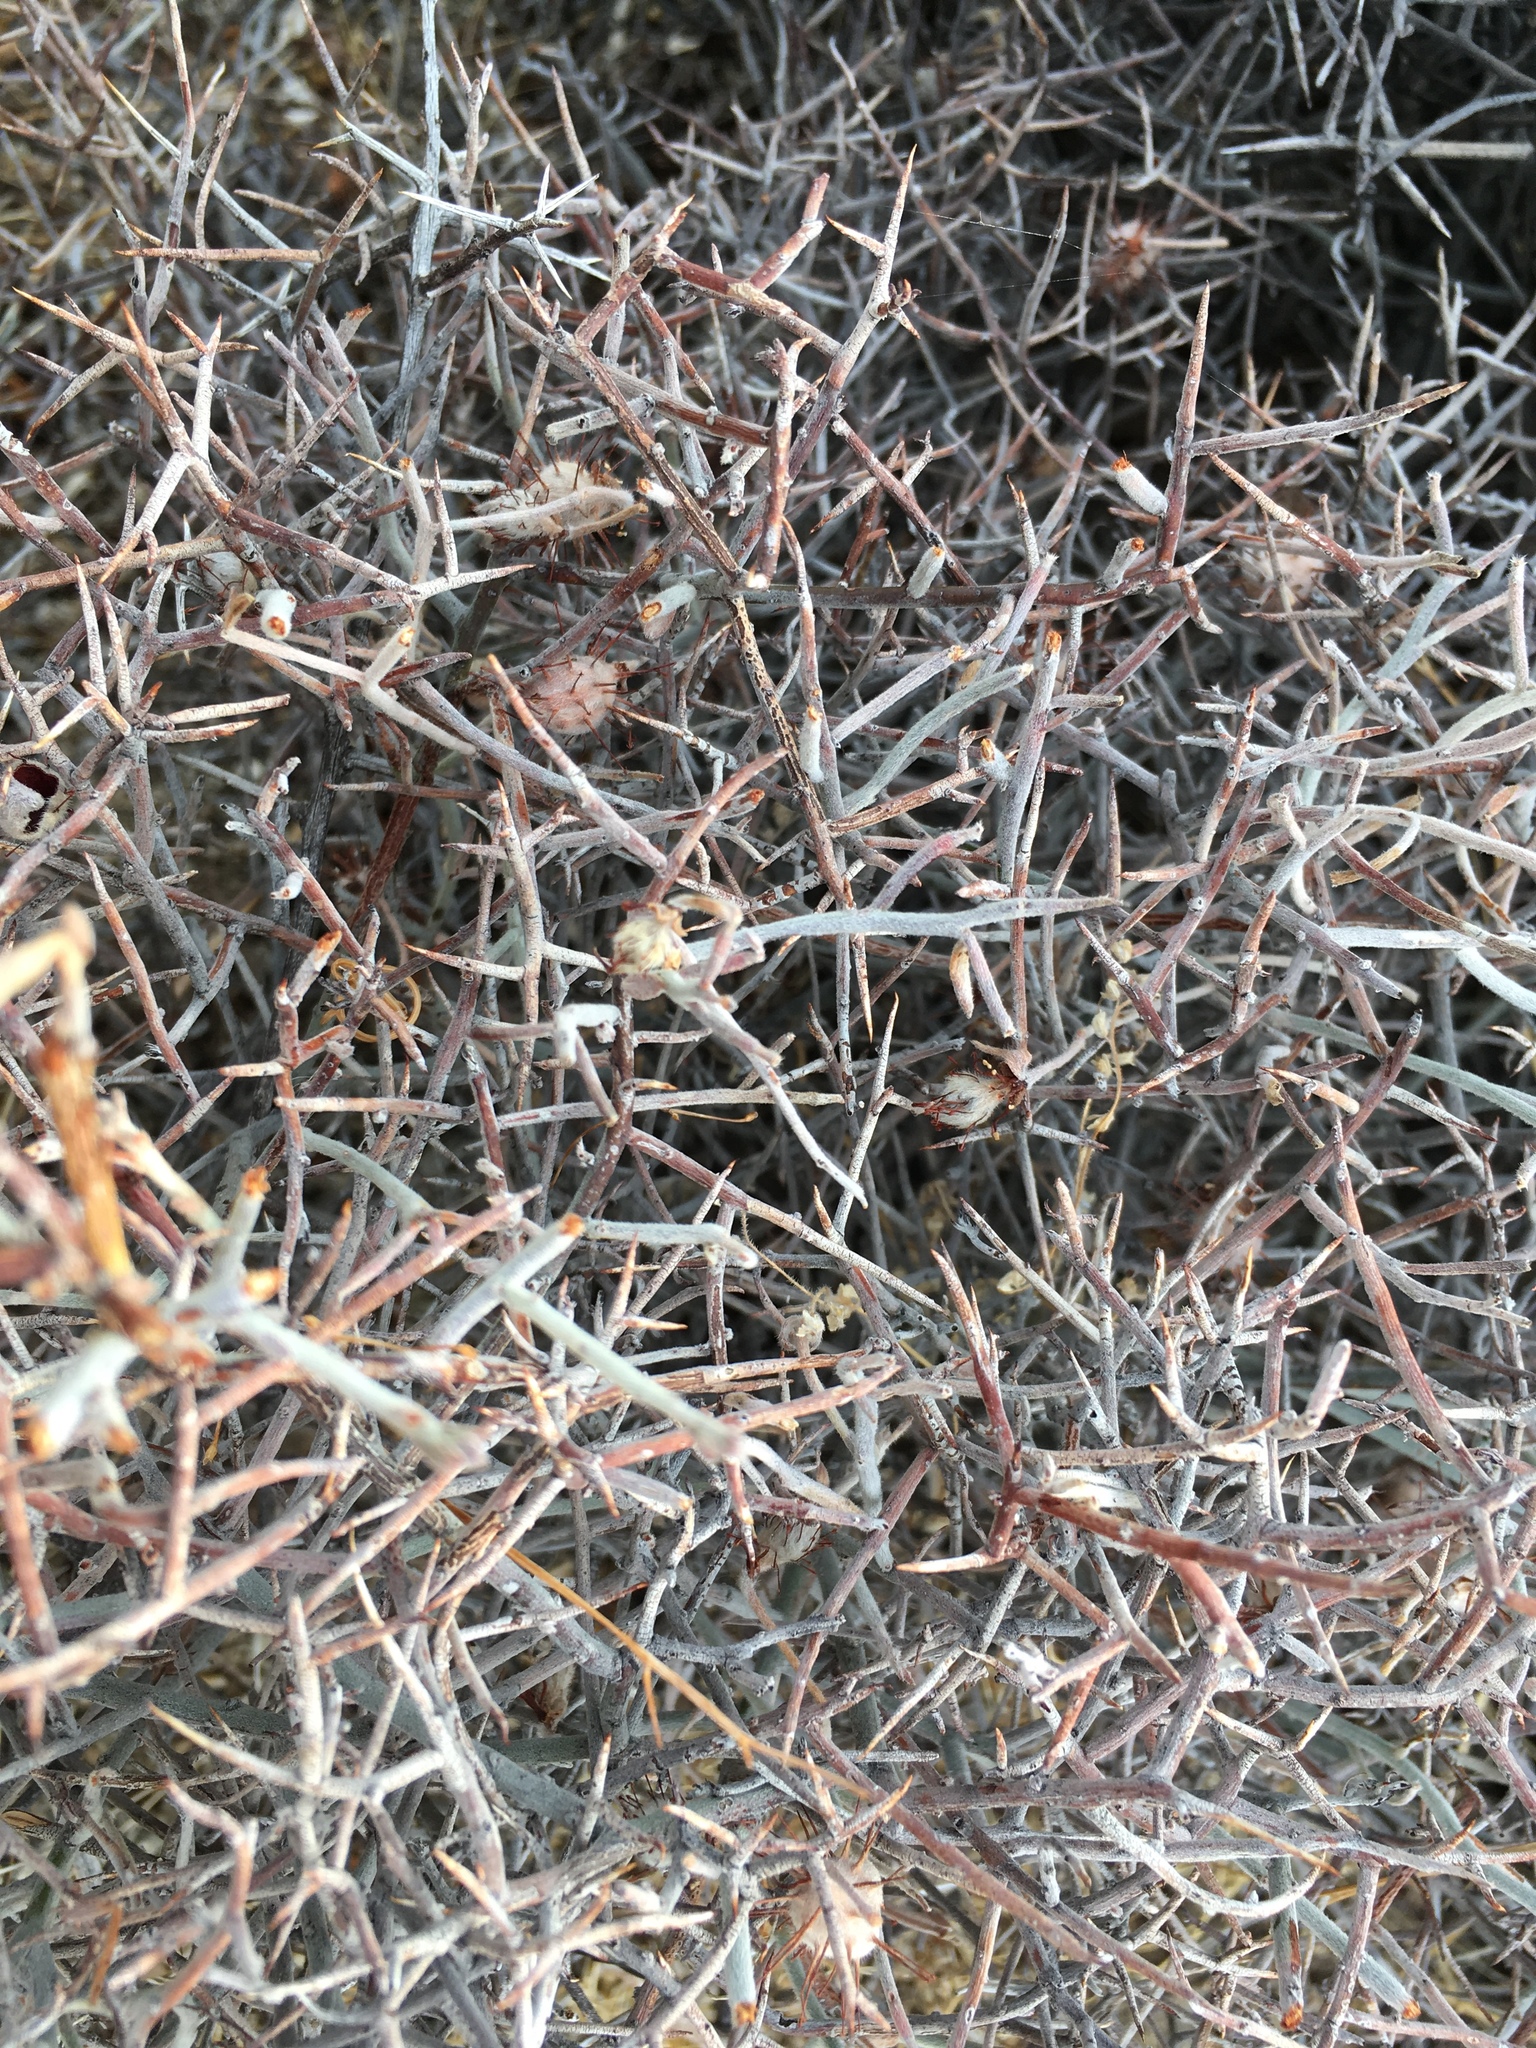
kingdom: Plantae
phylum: Tracheophyta
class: Magnoliopsida
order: Zygophyllales
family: Krameriaceae
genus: Krameria
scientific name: Krameria bicolor
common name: White ratany
